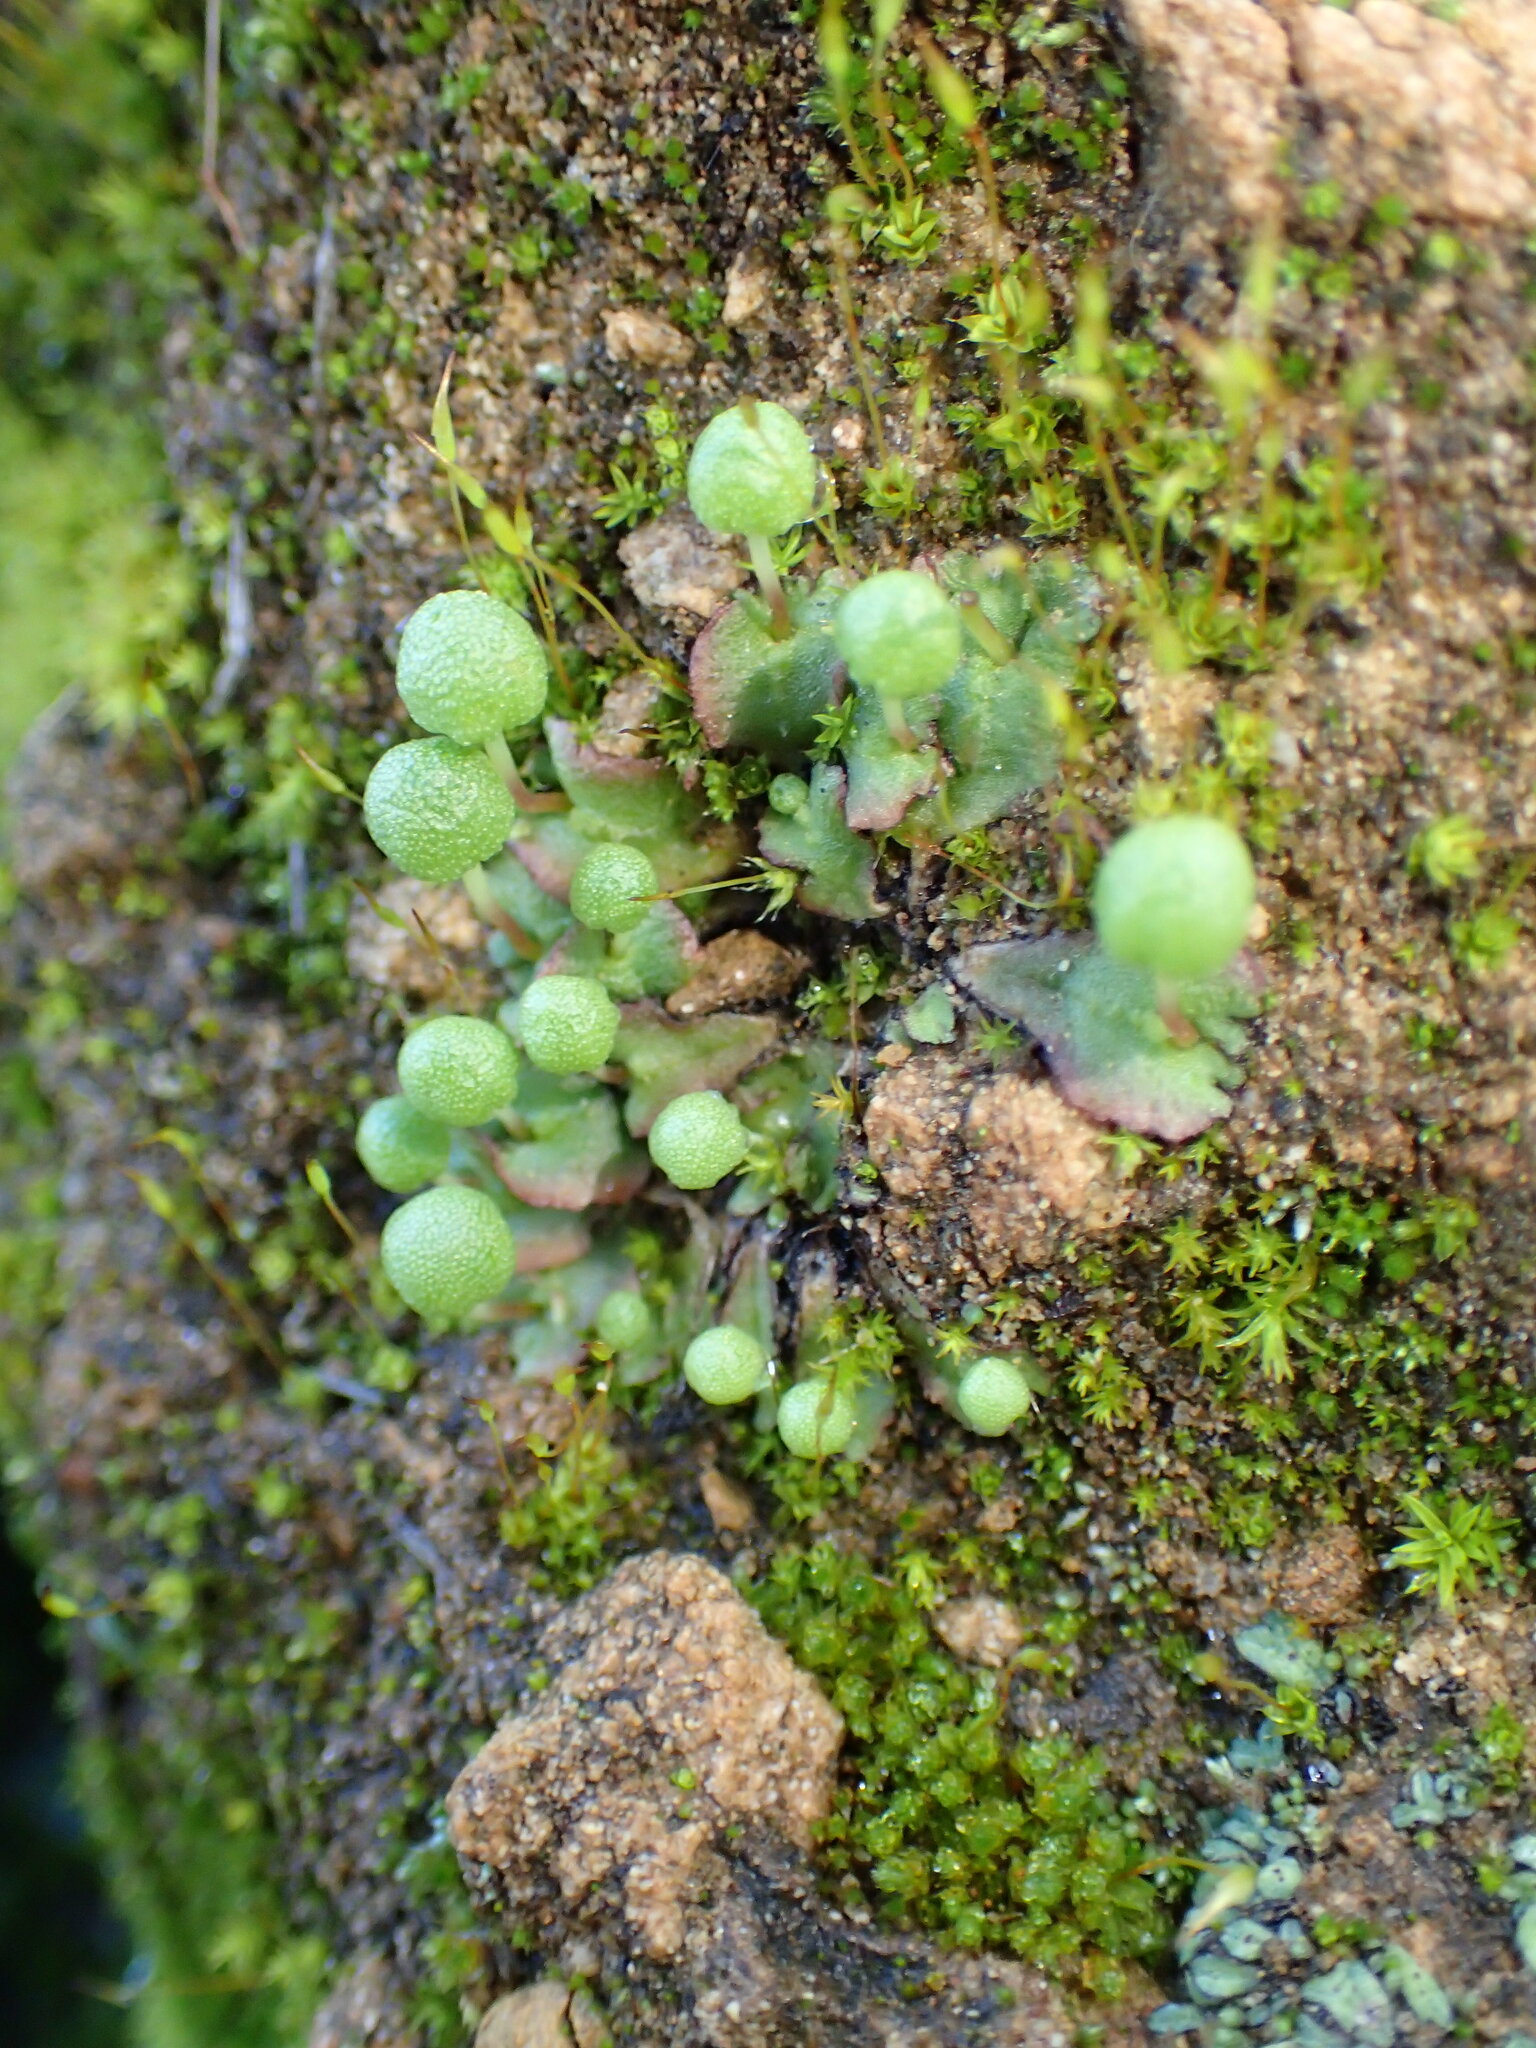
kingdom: Plantae
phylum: Marchantiophyta
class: Marchantiopsida
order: Marchantiales
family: Aytoniaceae
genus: Asterella
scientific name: Asterella palmeri
